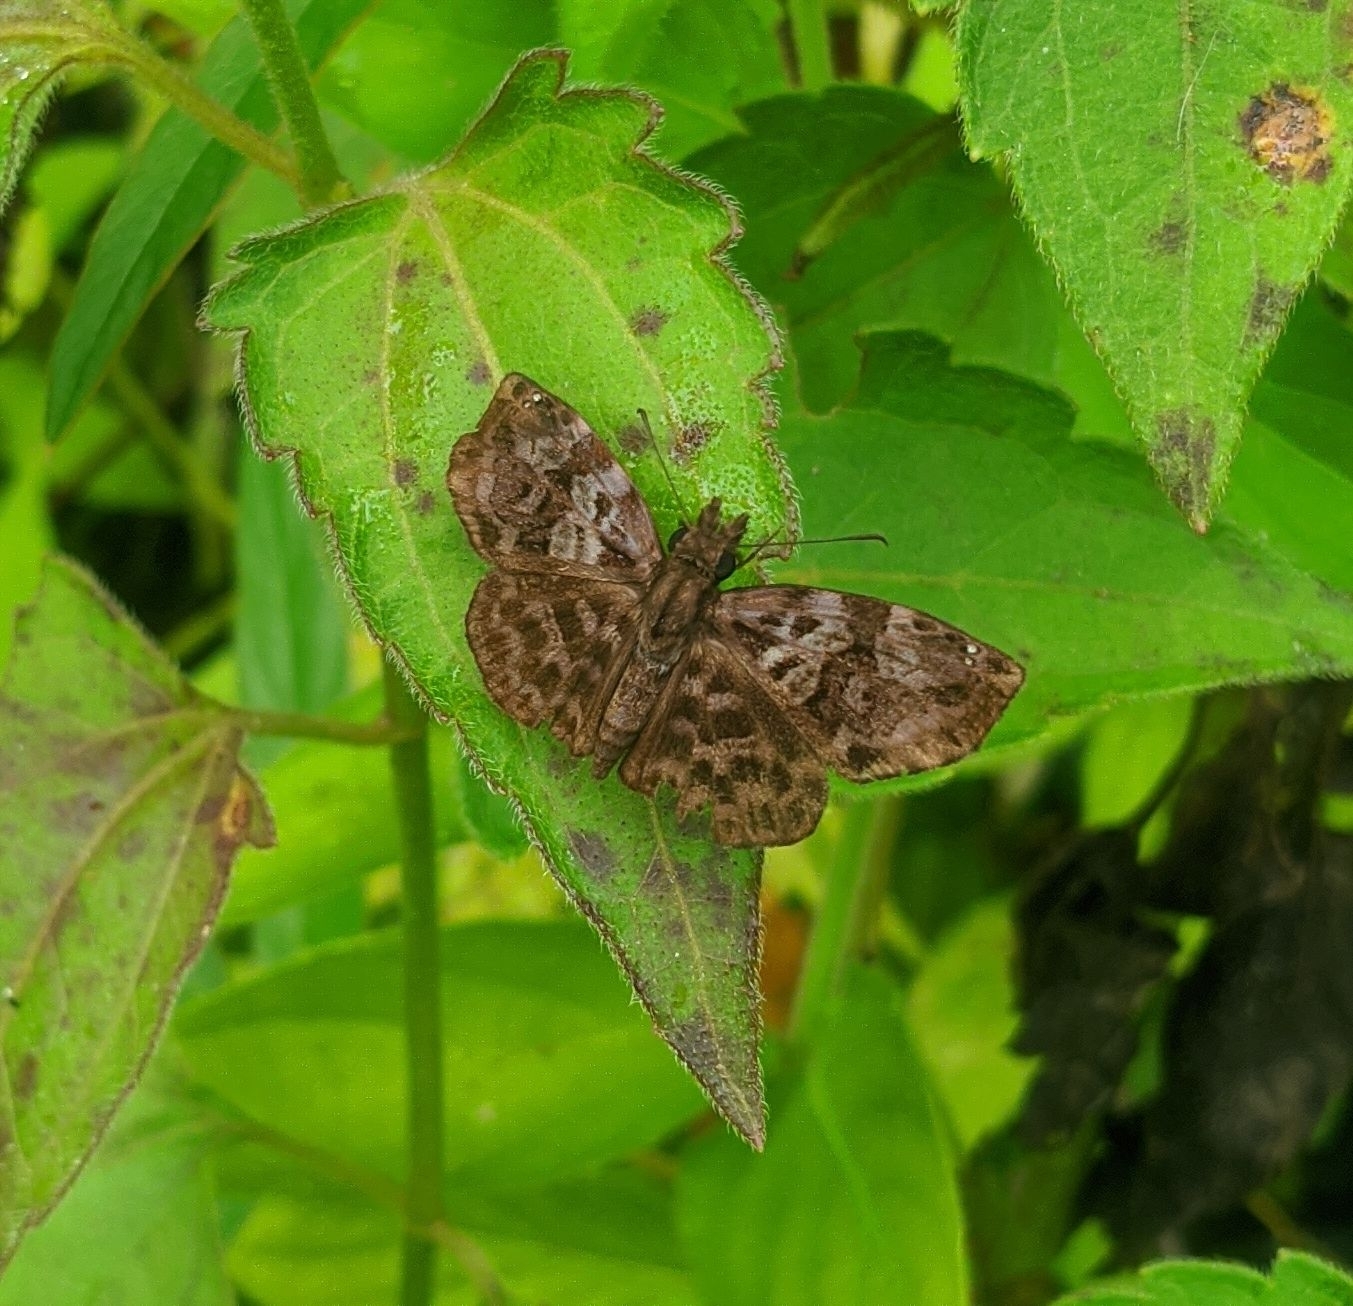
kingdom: Animalia
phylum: Arthropoda
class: Insecta
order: Lepidoptera
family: Hesperiidae
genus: Gorgythion
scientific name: Gorgythion beggina
